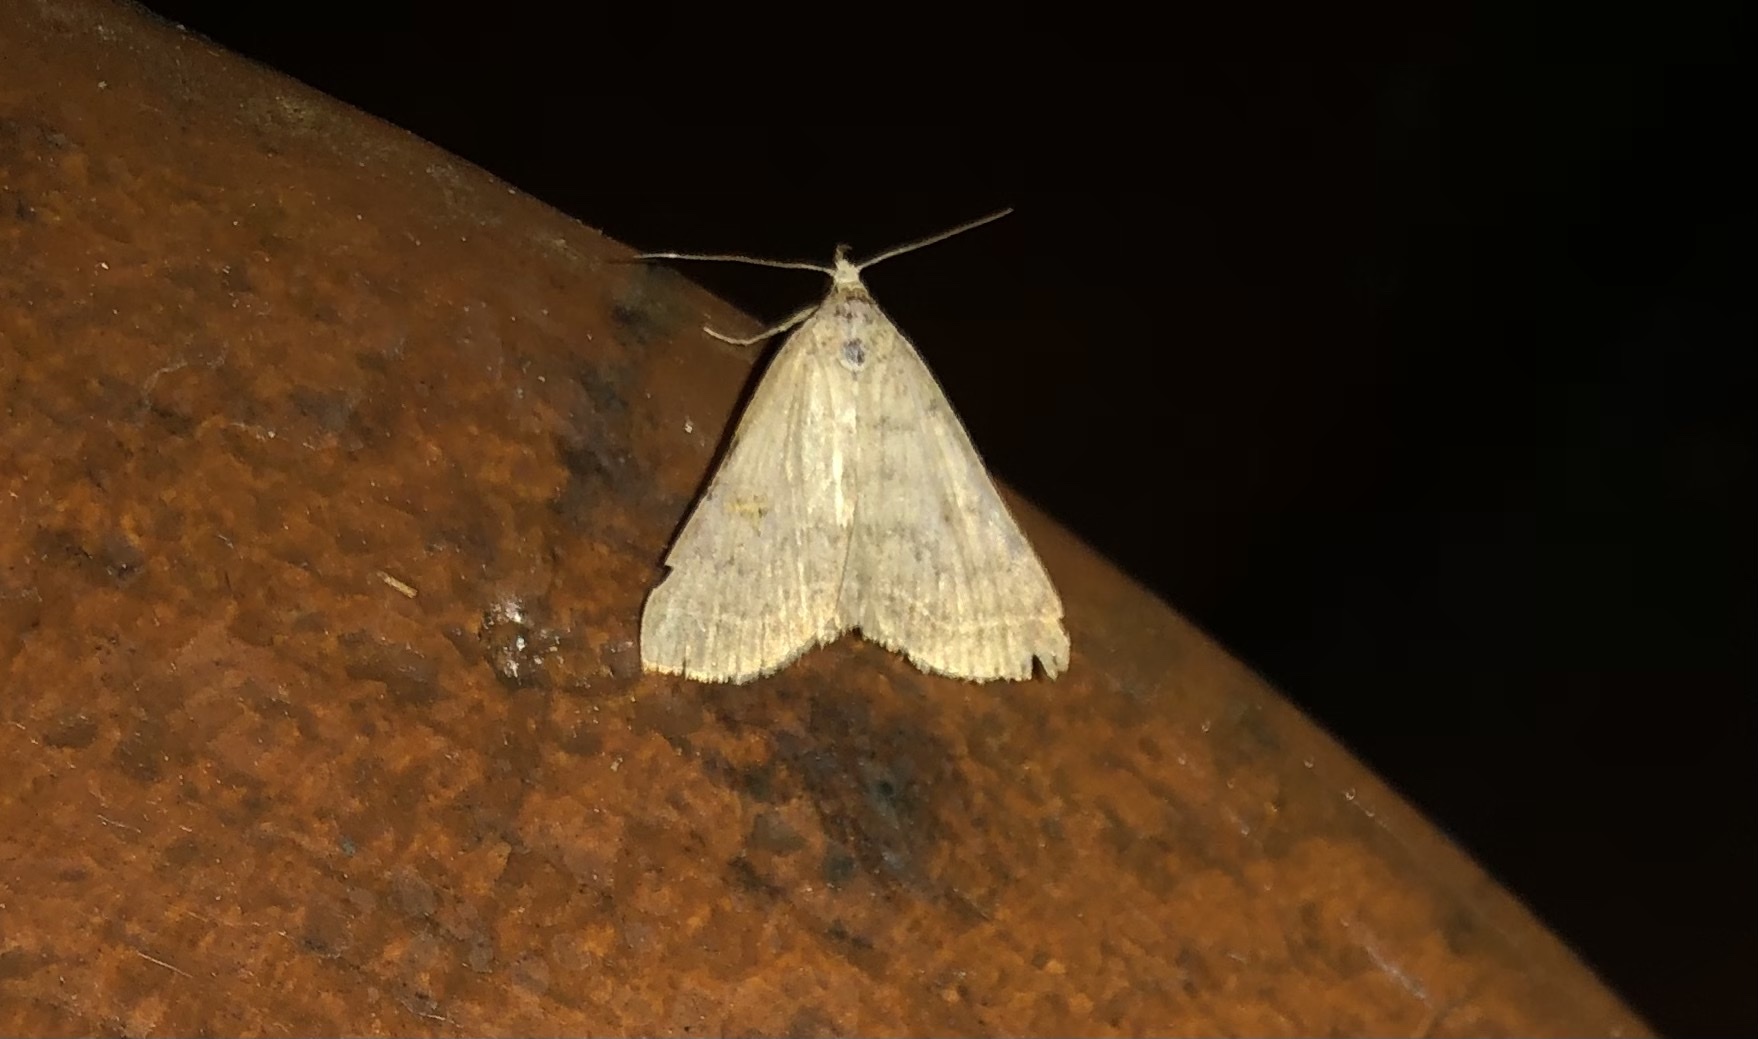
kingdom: Animalia
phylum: Arthropoda
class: Insecta
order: Lepidoptera
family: Erebidae
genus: Bleptina
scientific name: Bleptina caradrinalis
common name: Bent-winged owlet
